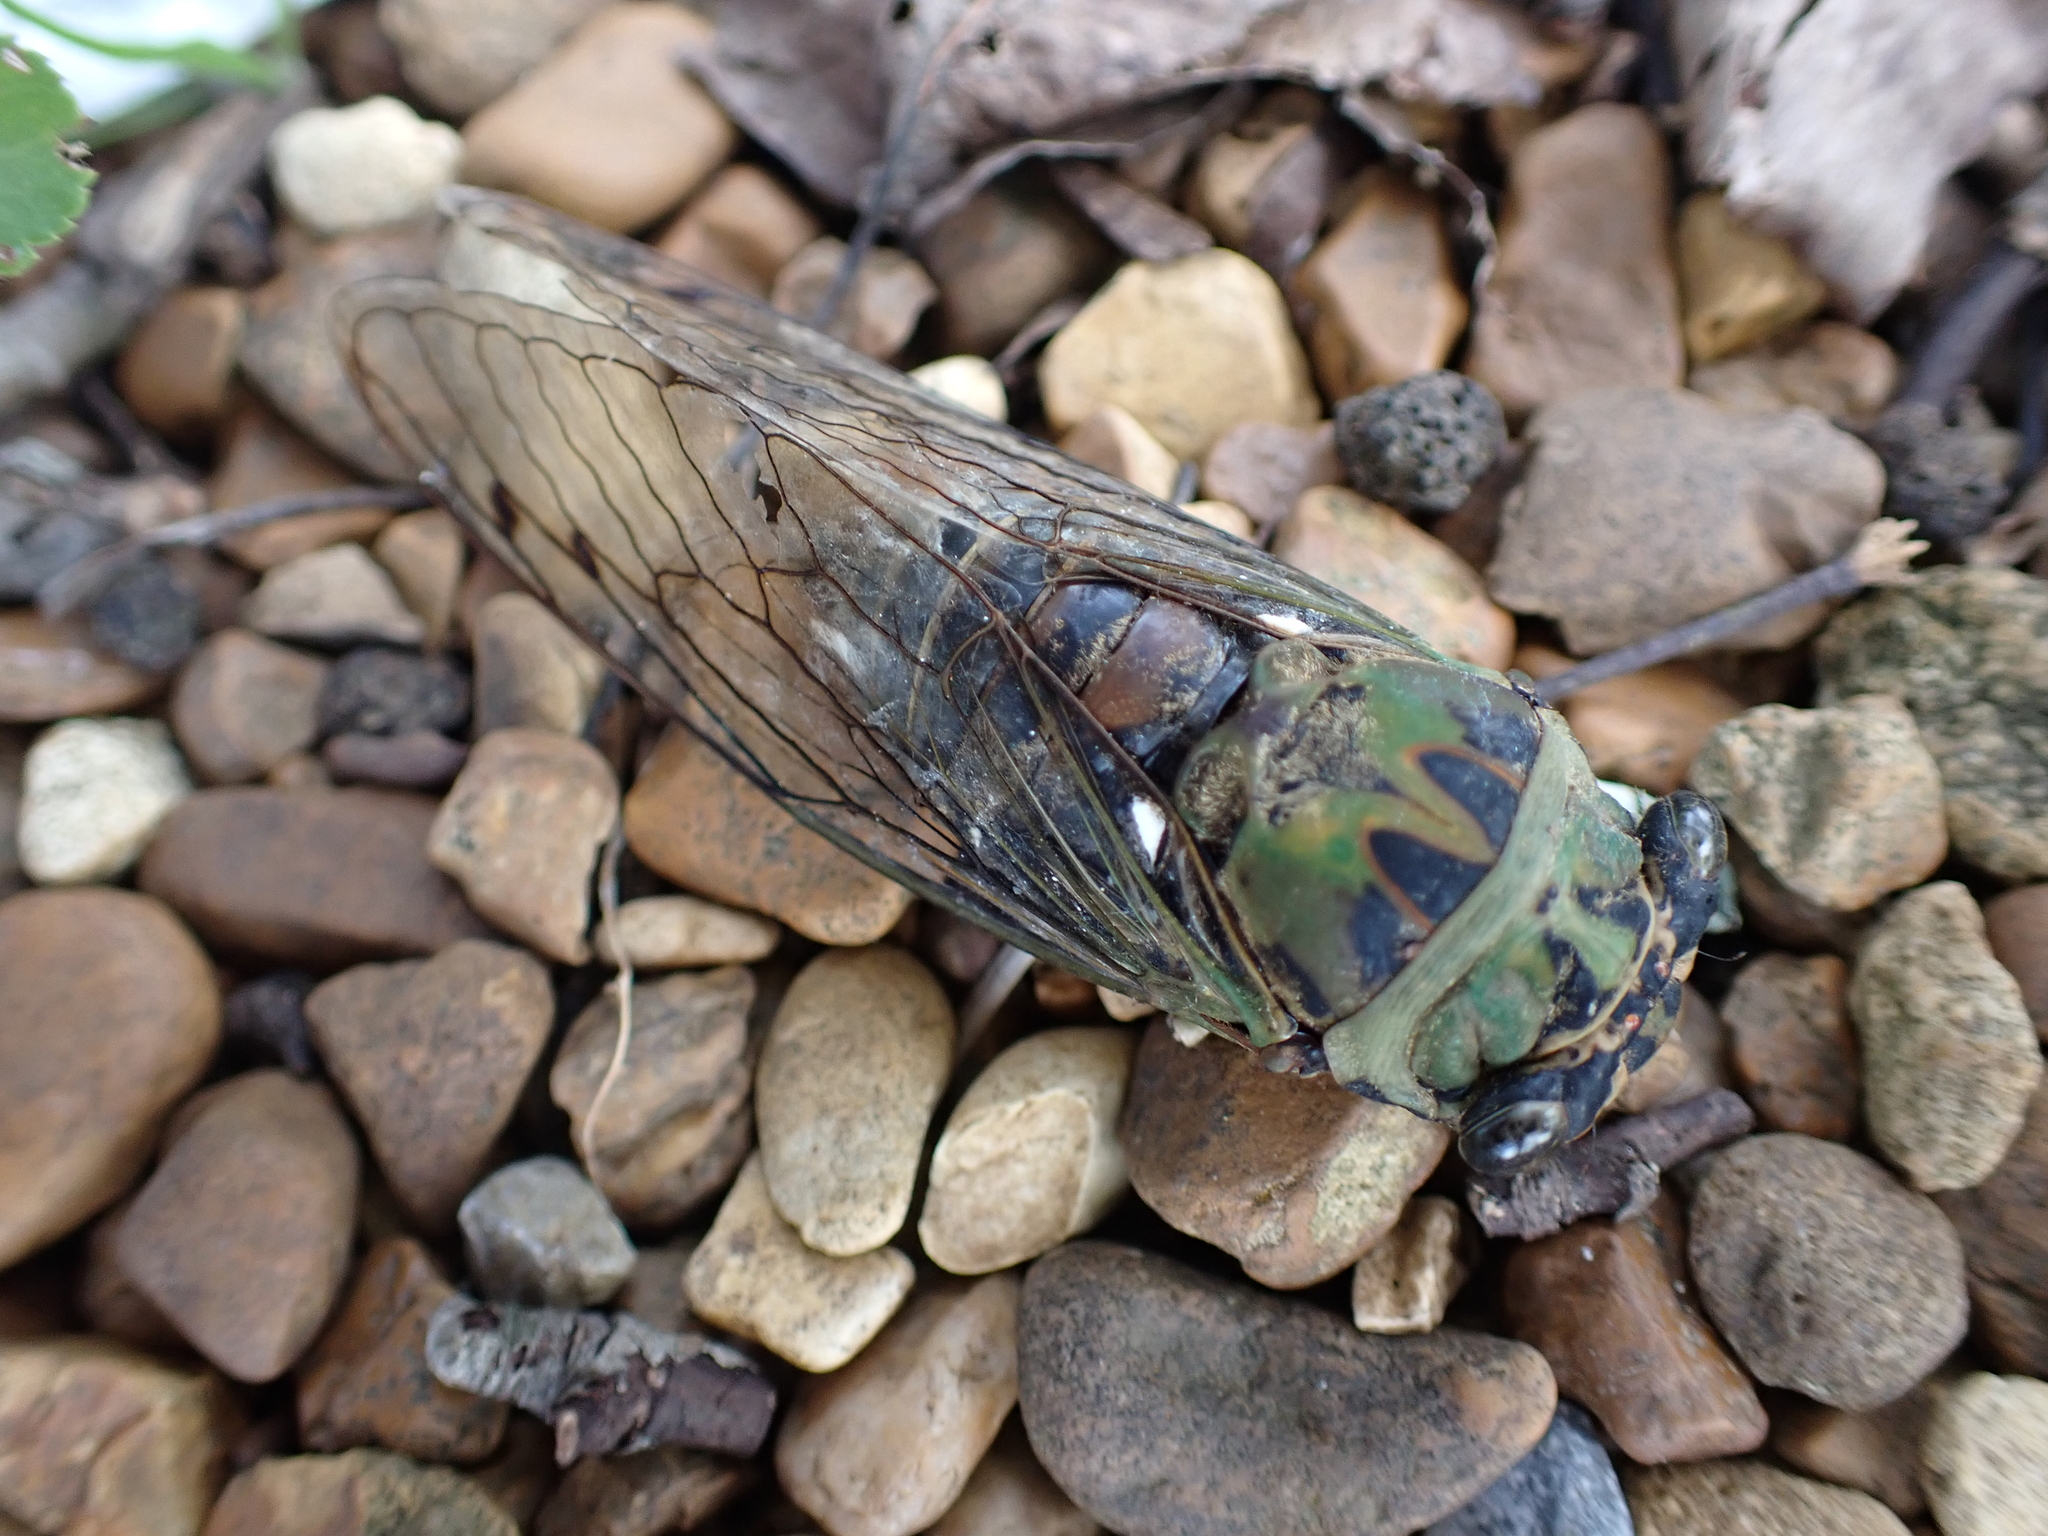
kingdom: Animalia
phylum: Arthropoda
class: Insecta
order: Hemiptera
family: Cicadidae
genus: Neotibicen
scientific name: Neotibicen winnemanna
